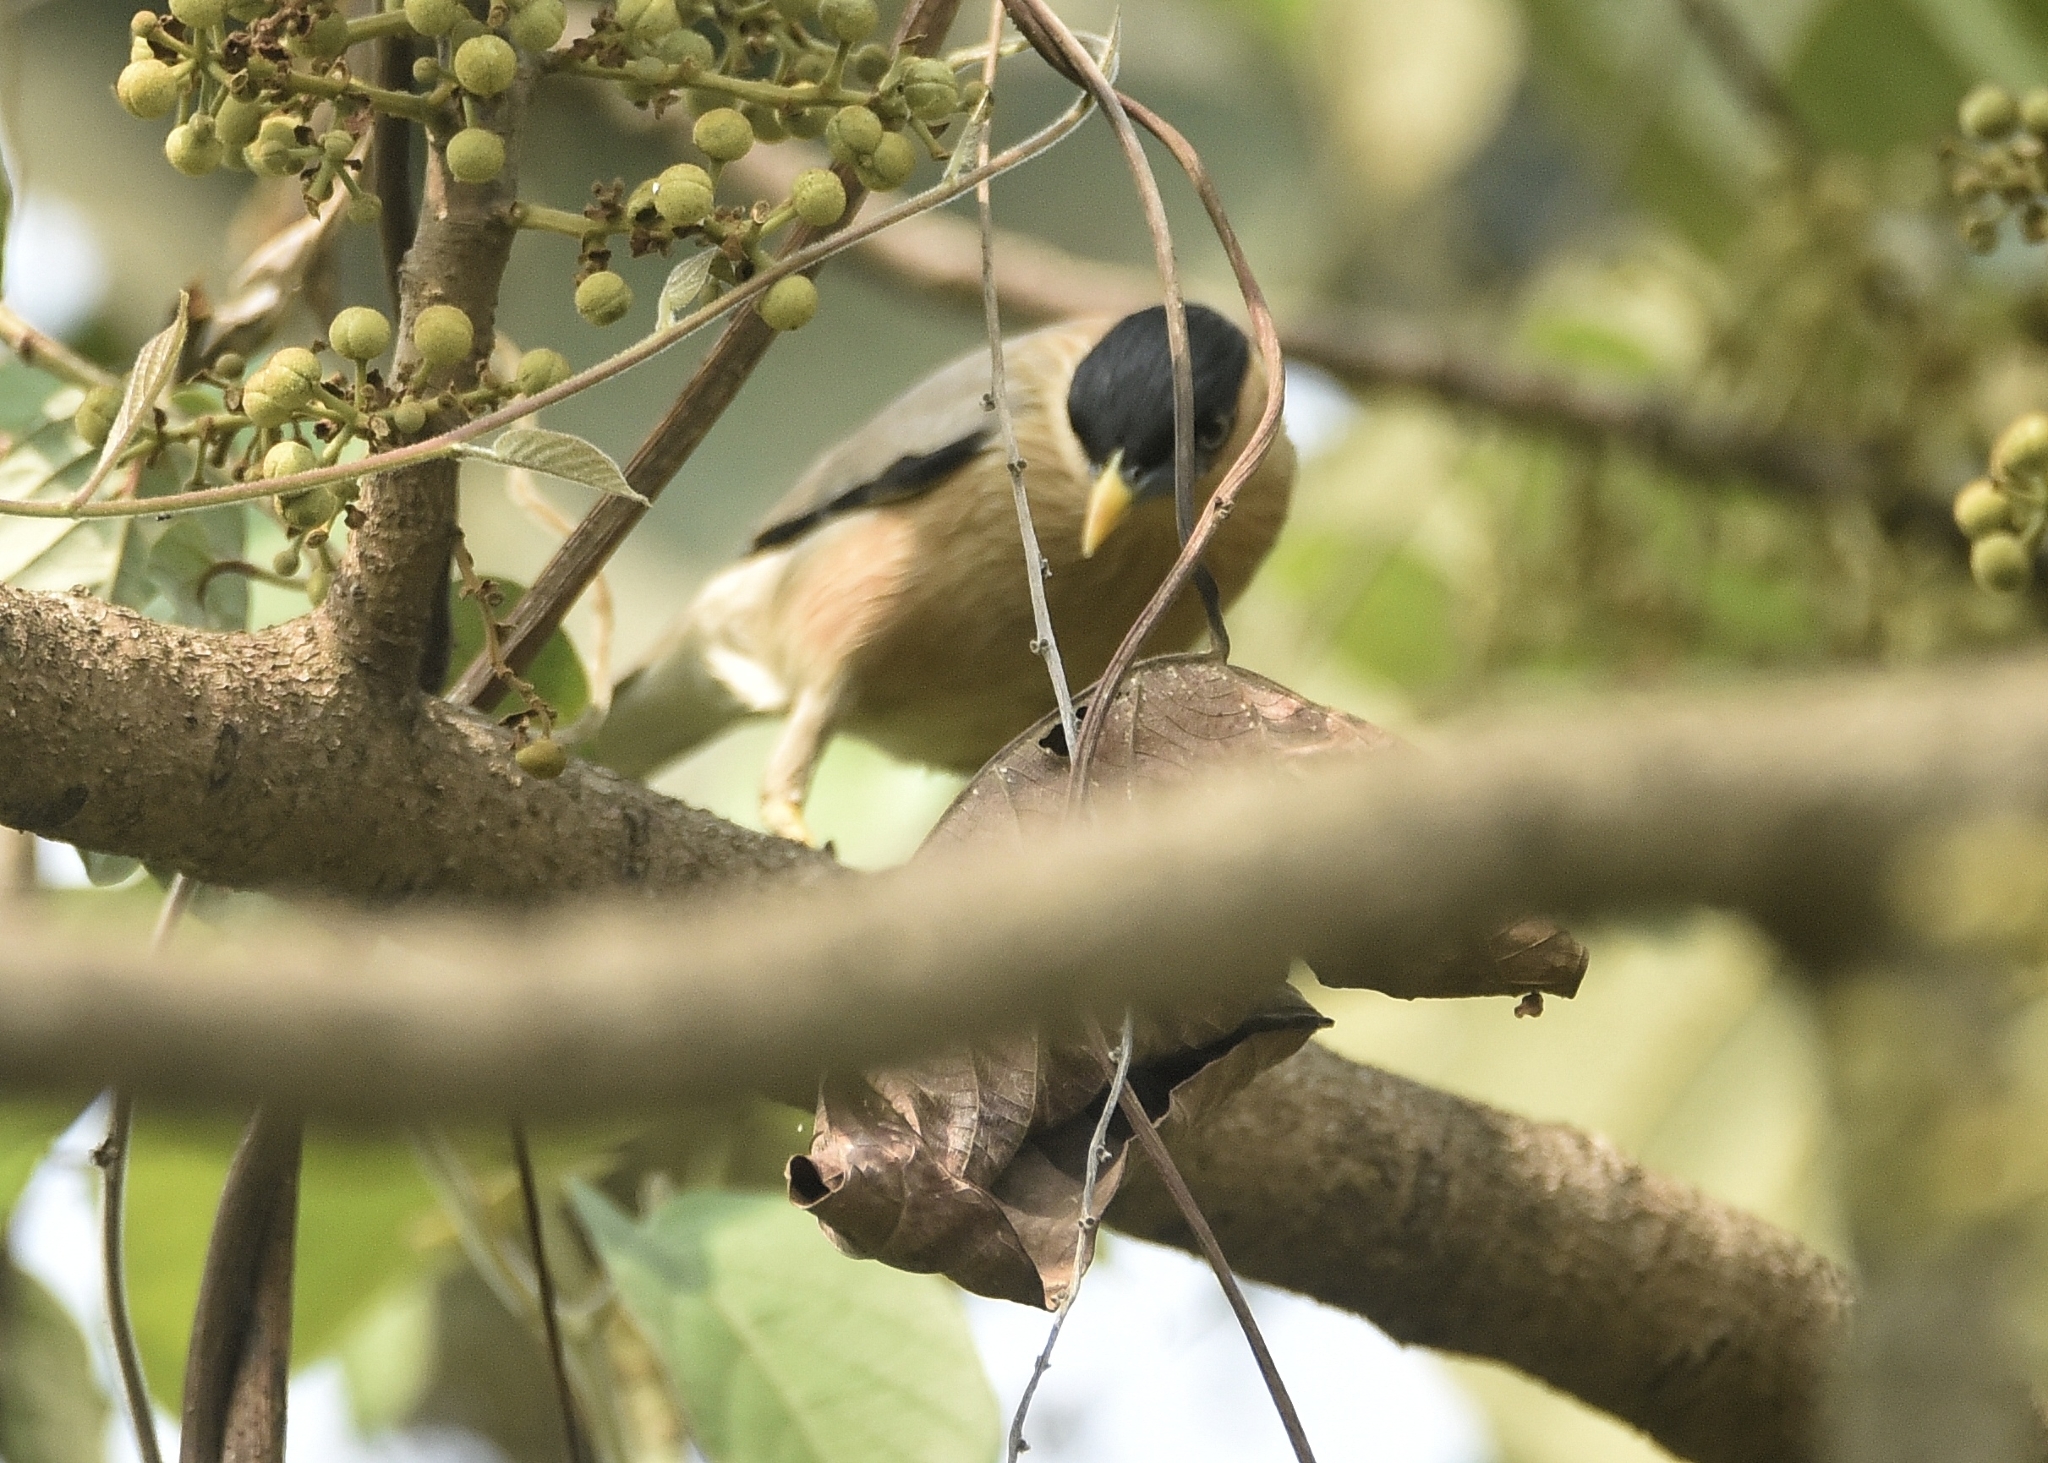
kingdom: Animalia
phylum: Chordata
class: Aves
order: Passeriformes
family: Sturnidae
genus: Sturnia
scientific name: Sturnia pagodarum
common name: Brahminy starling
